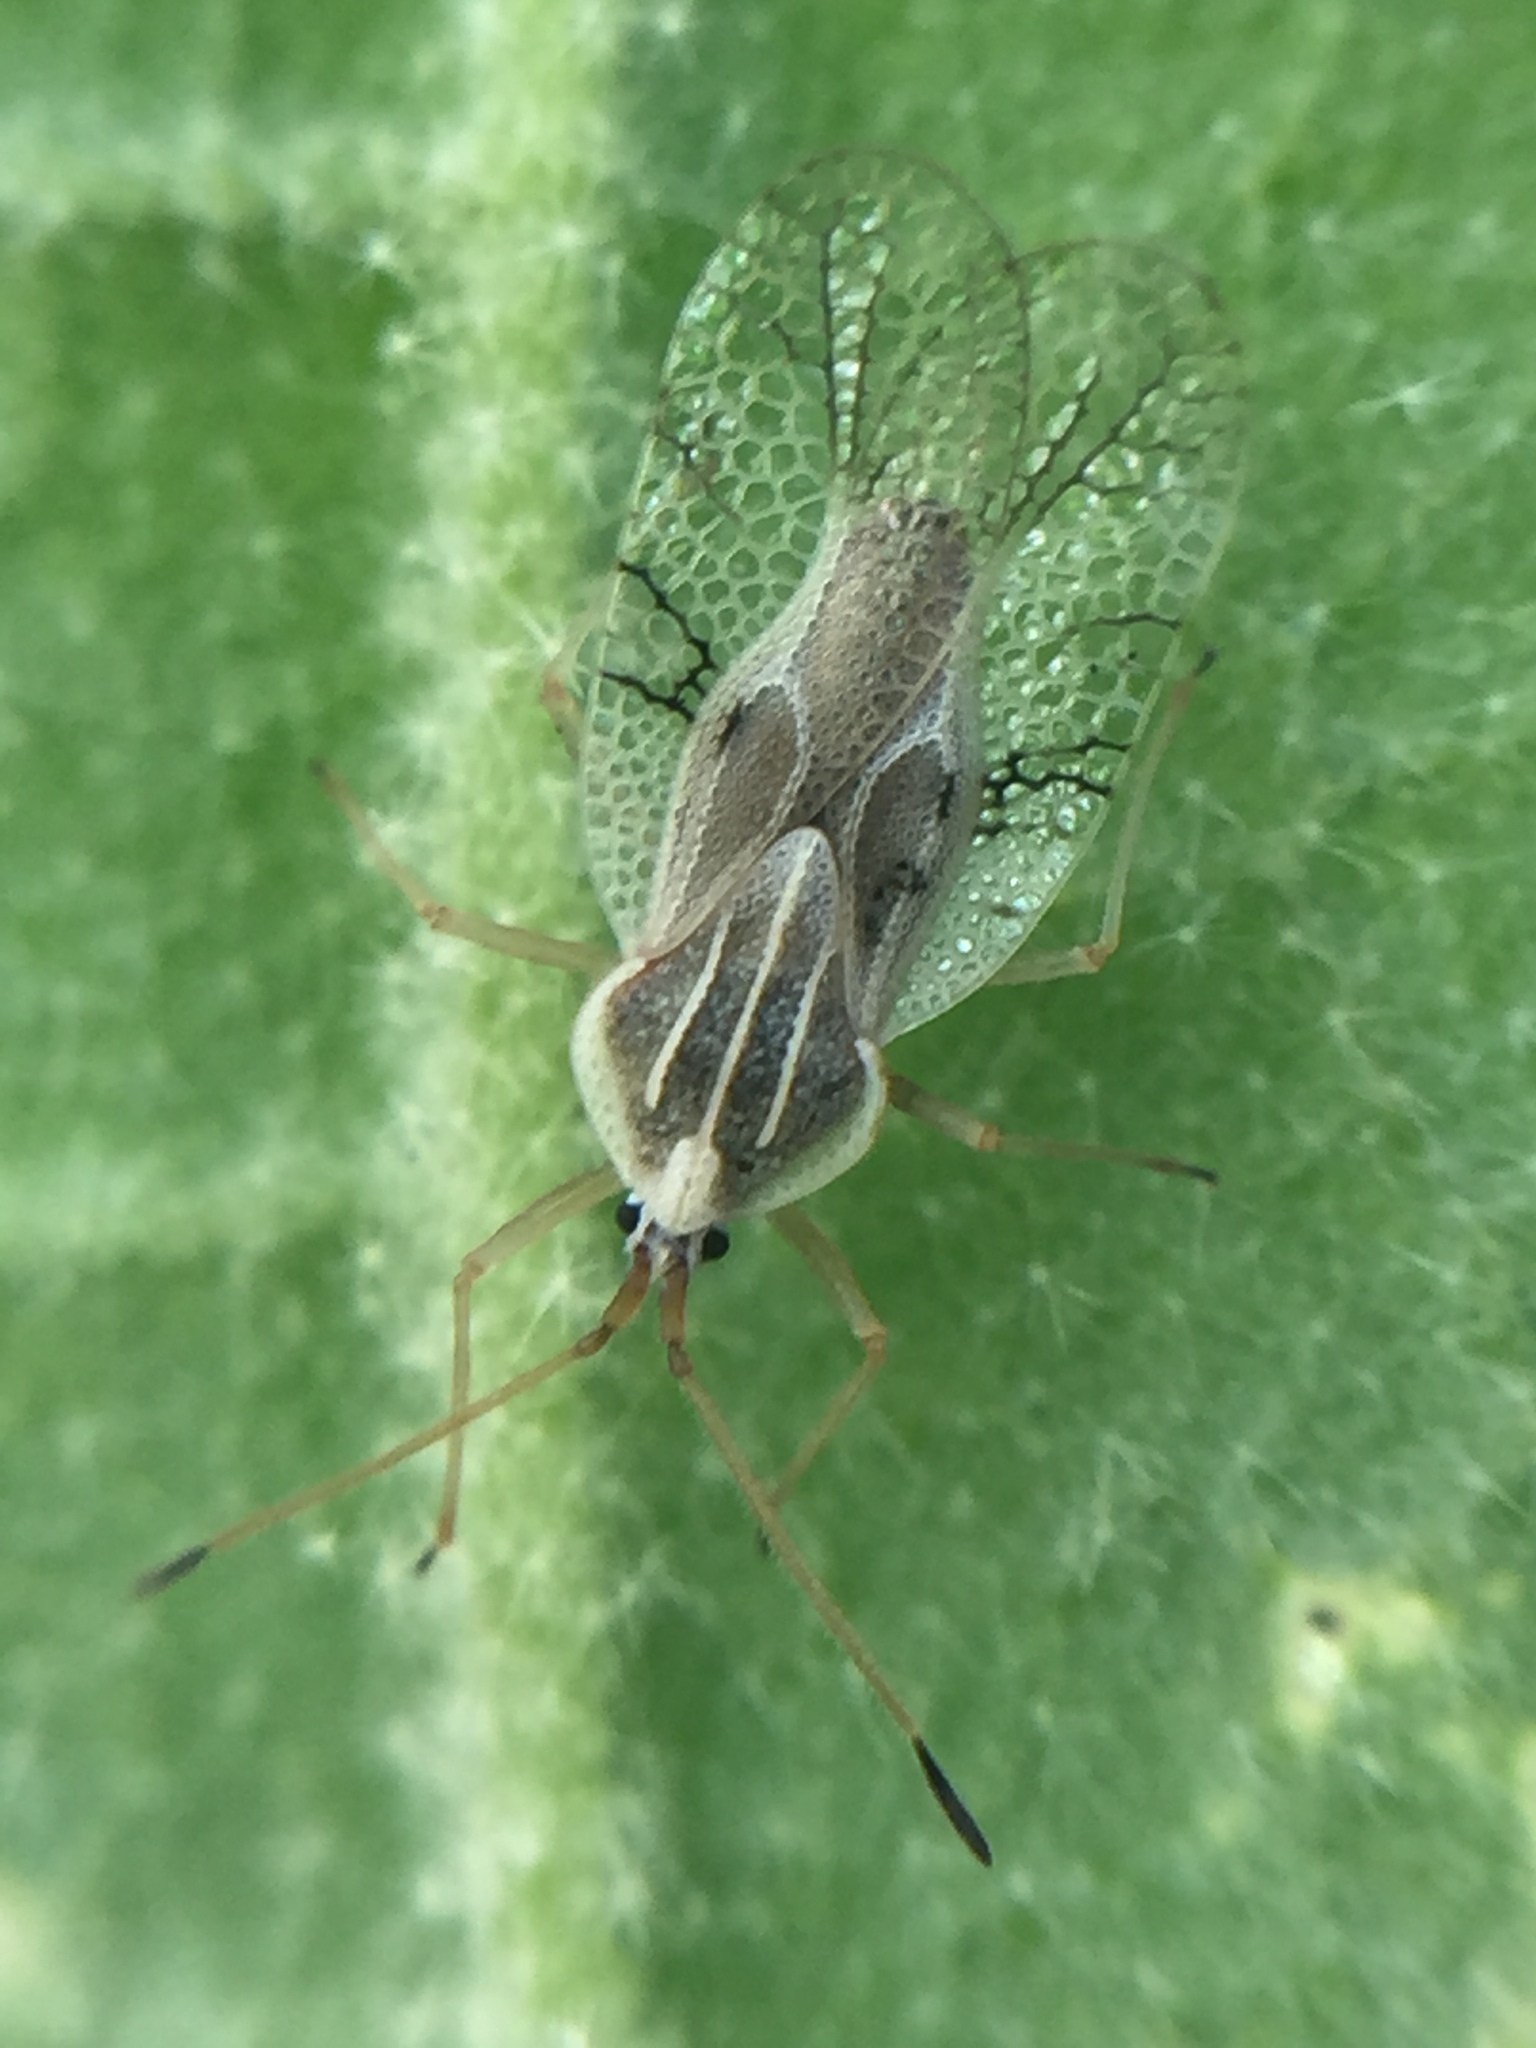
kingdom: Animalia
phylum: Arthropoda
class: Insecta
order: Hemiptera
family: Tingidae
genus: Gargaphia
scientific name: Gargaphia decoris
